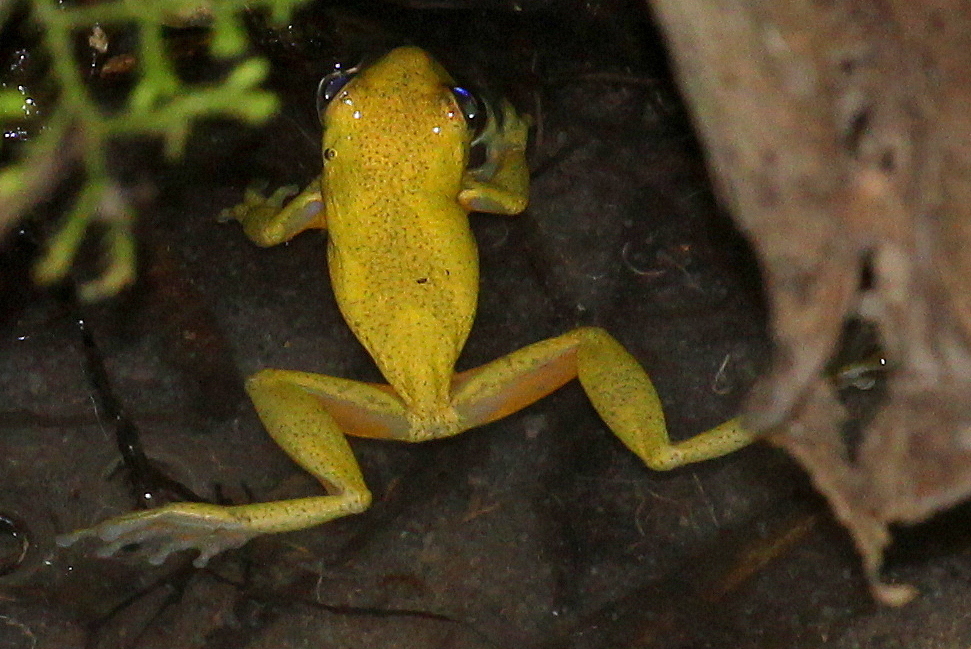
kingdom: Animalia
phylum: Chordata
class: Amphibia
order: Anura
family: Hylidae
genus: Dendropsophus
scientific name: Dendropsophus carnifex
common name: Executioner treefrog
